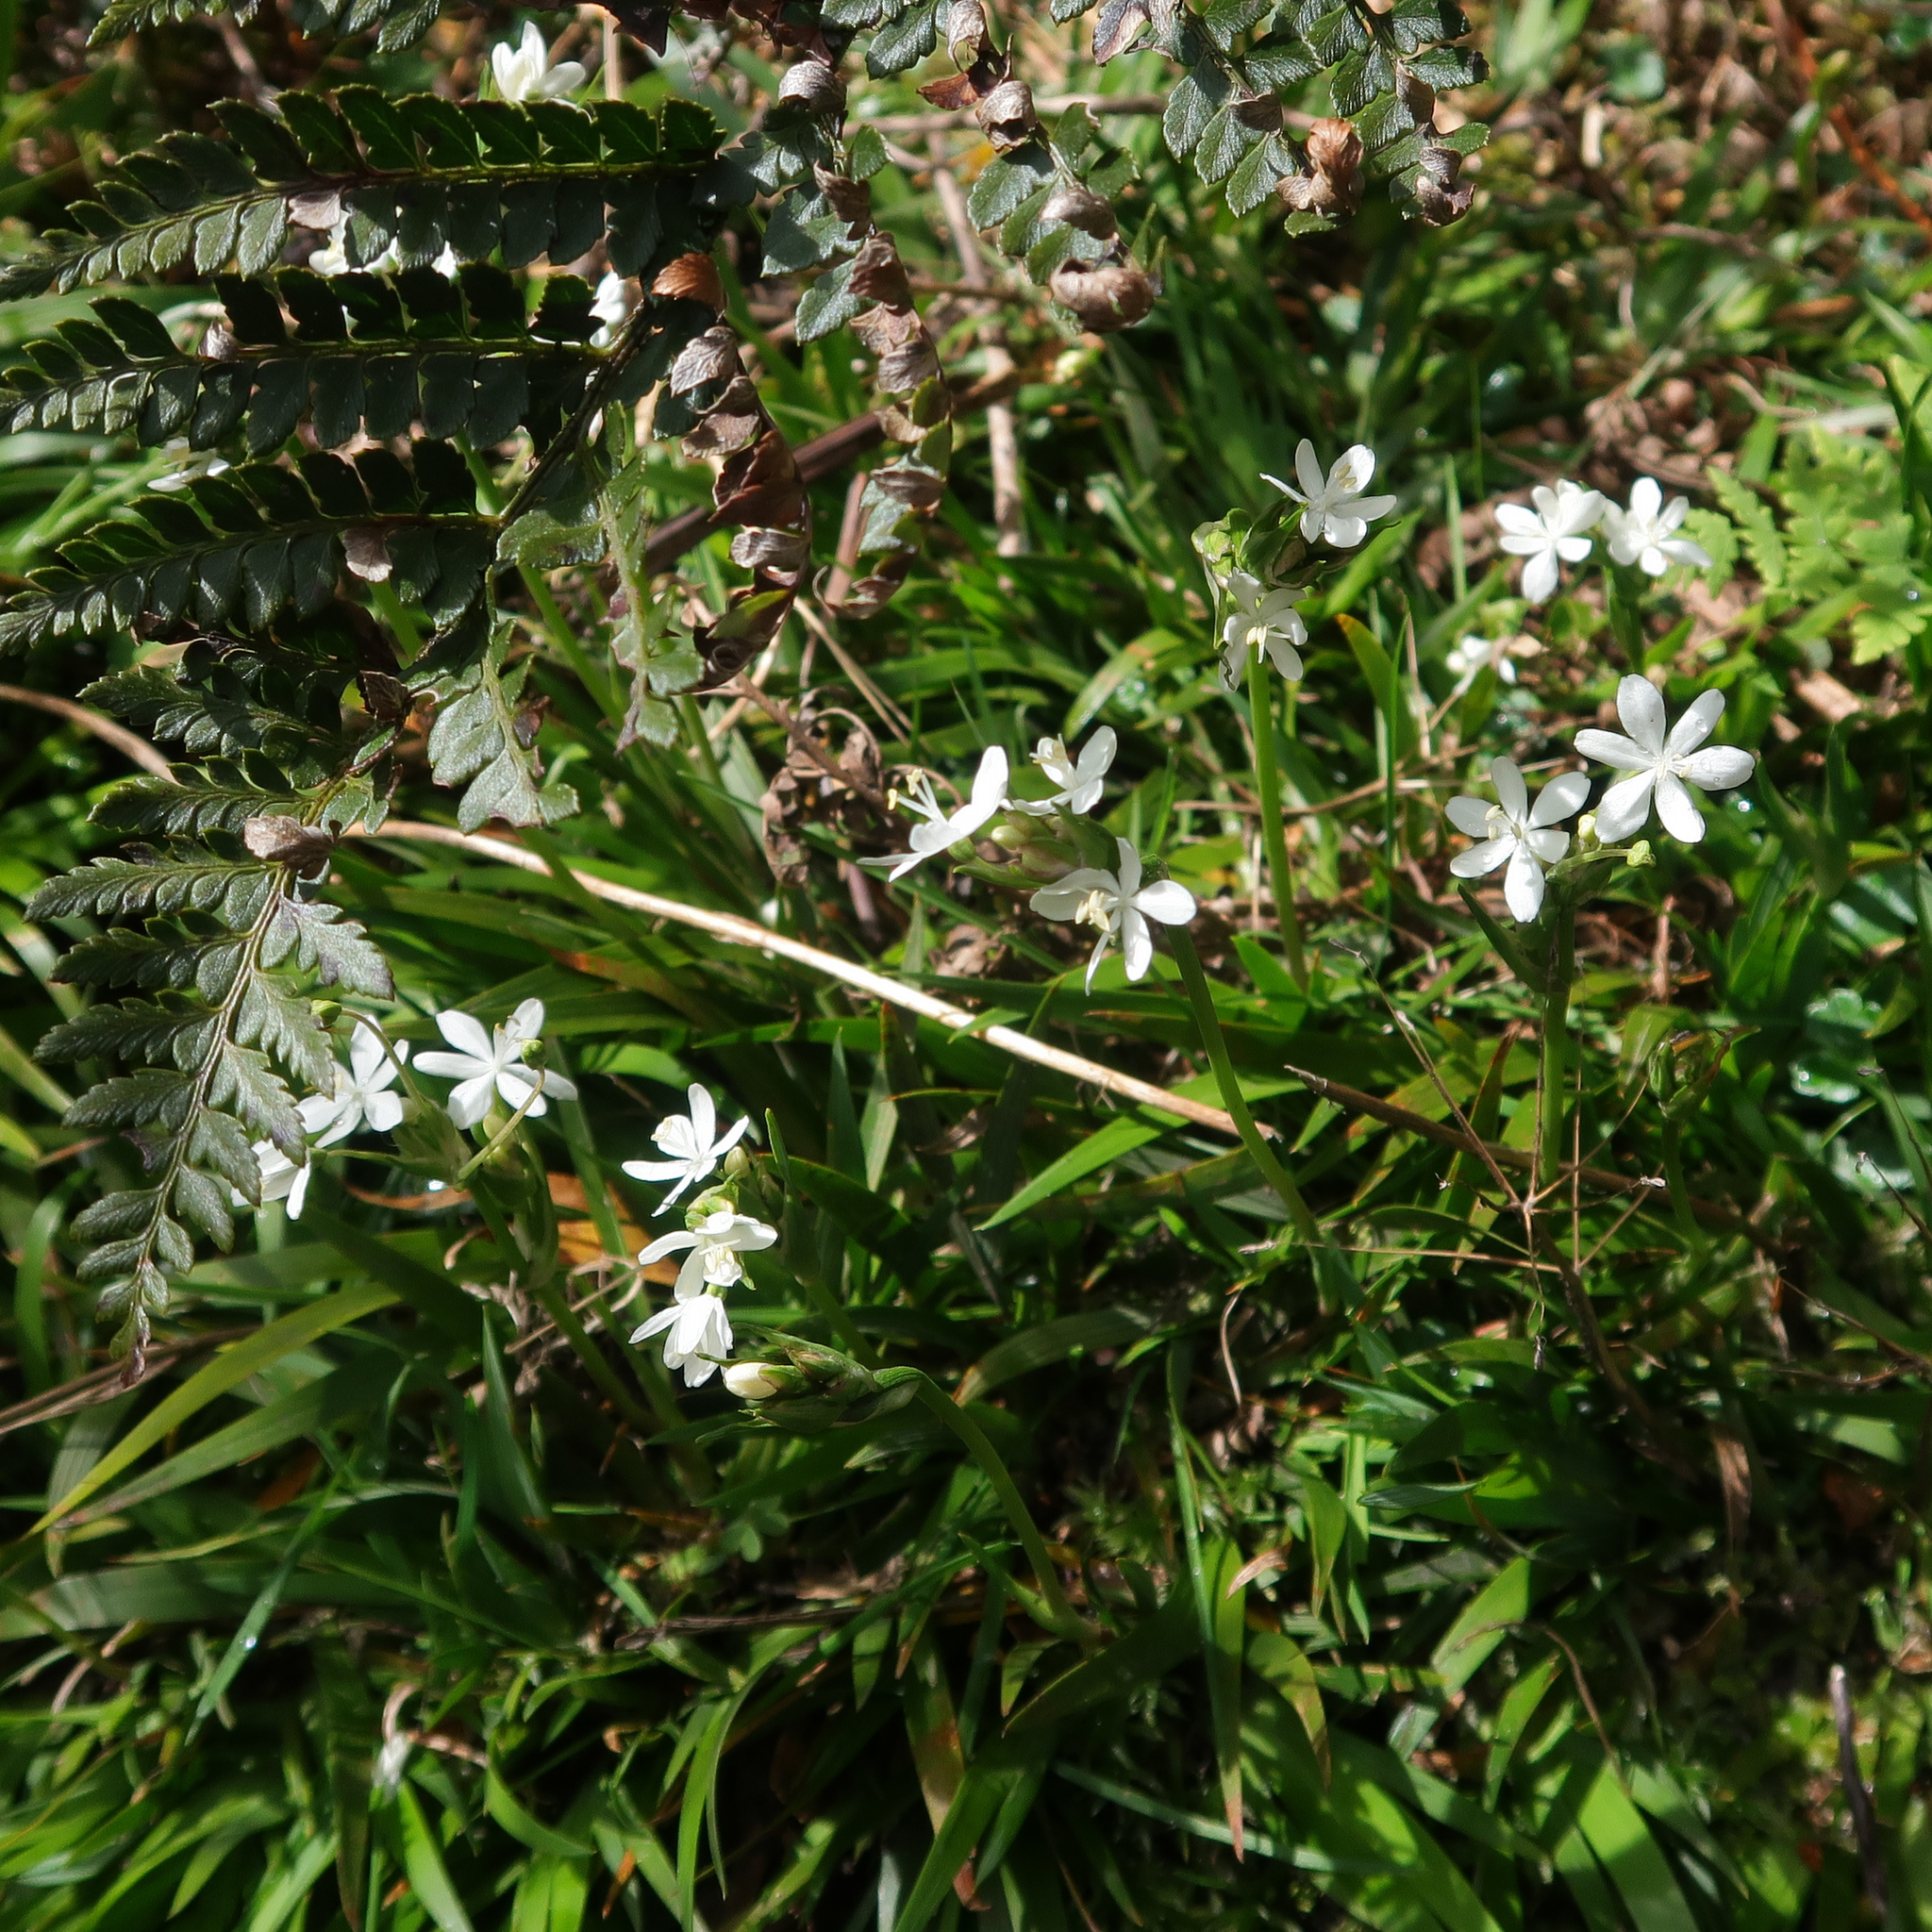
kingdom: Plantae
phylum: Tracheophyta
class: Liliopsida
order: Asparagales
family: Iridaceae
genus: Libertia
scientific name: Libertia pulchella
